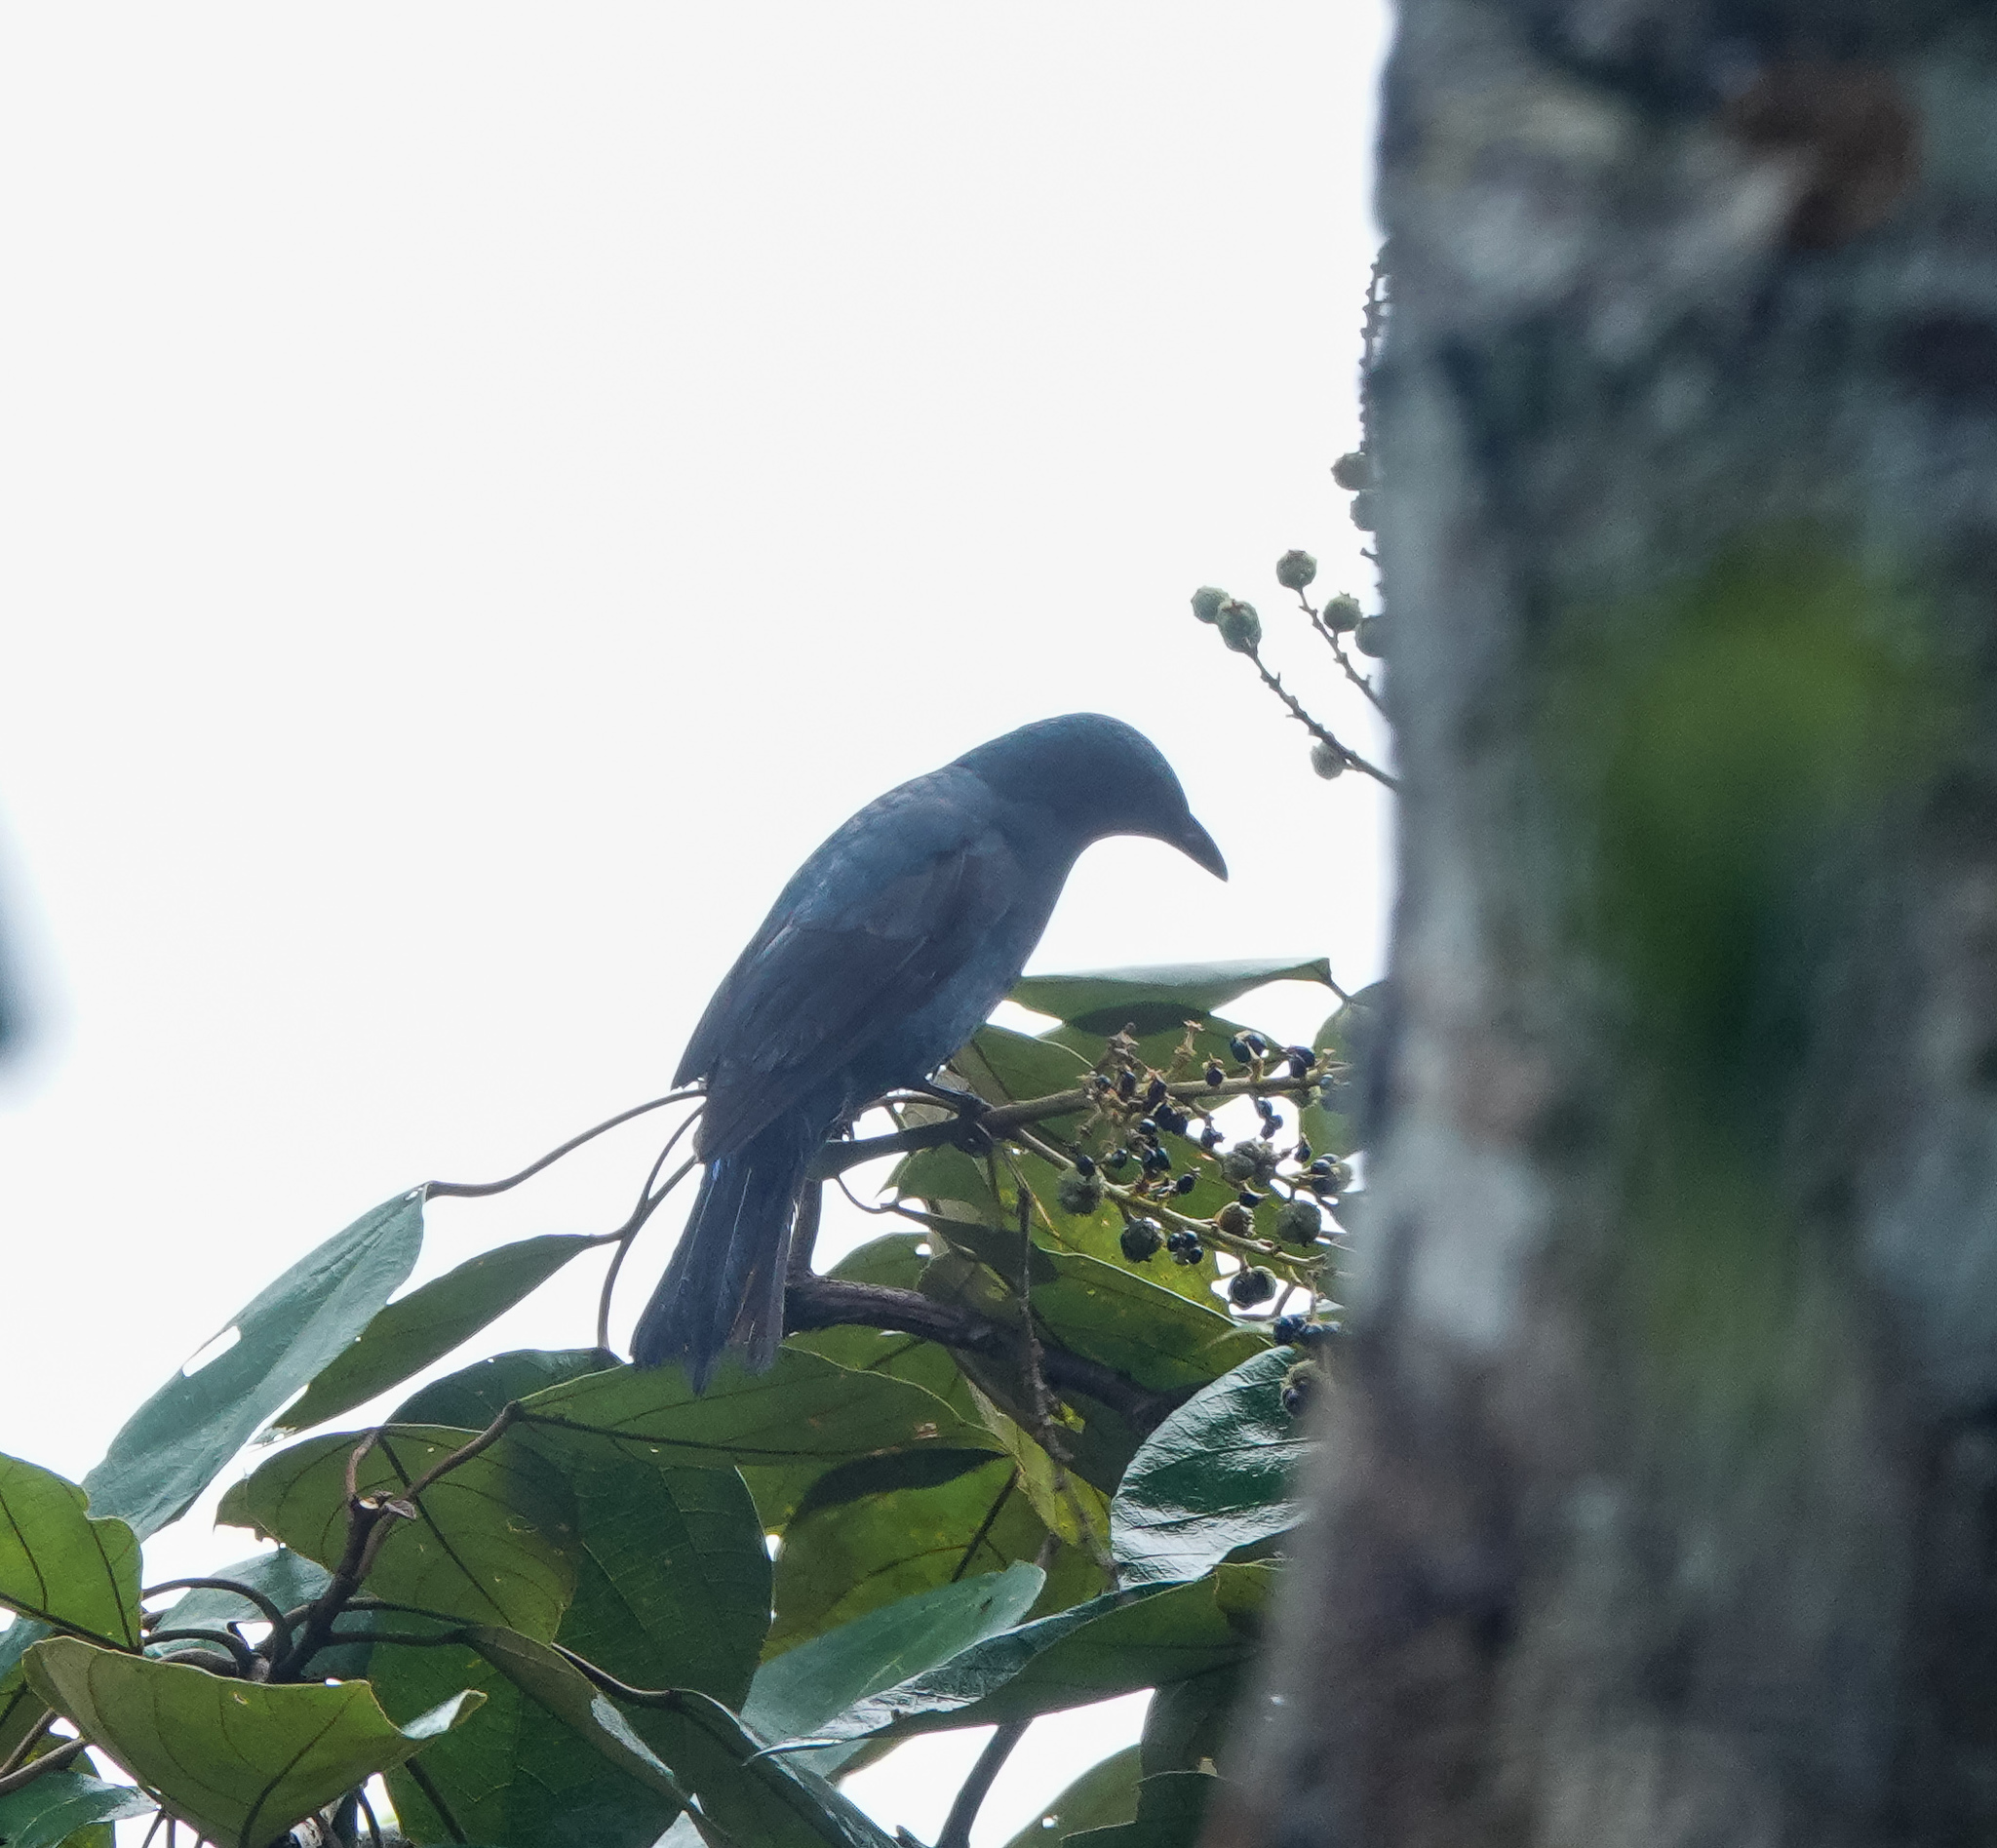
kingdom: Animalia
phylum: Chordata
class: Aves
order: Passeriformes
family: Irenidae
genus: Irena
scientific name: Irena puella
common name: Asian fairy-bluebird
